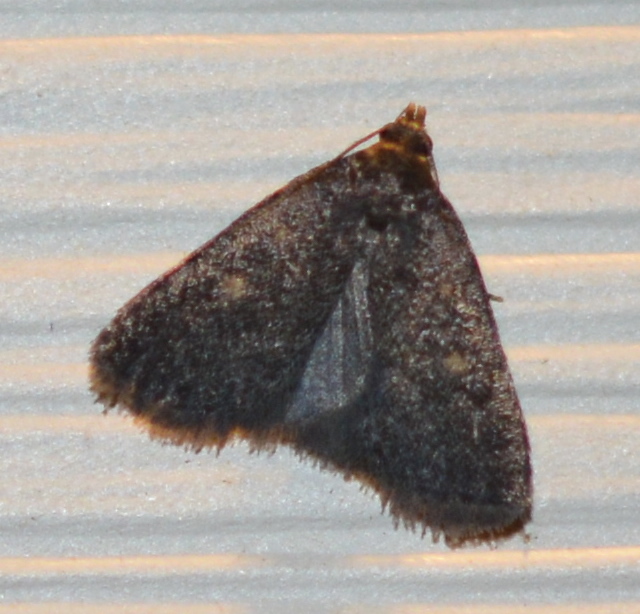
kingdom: Animalia
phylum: Arthropoda
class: Insecta
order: Lepidoptera
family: Erebidae
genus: Idia
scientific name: Idia diminuendis
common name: Orange-spotted idia moth
